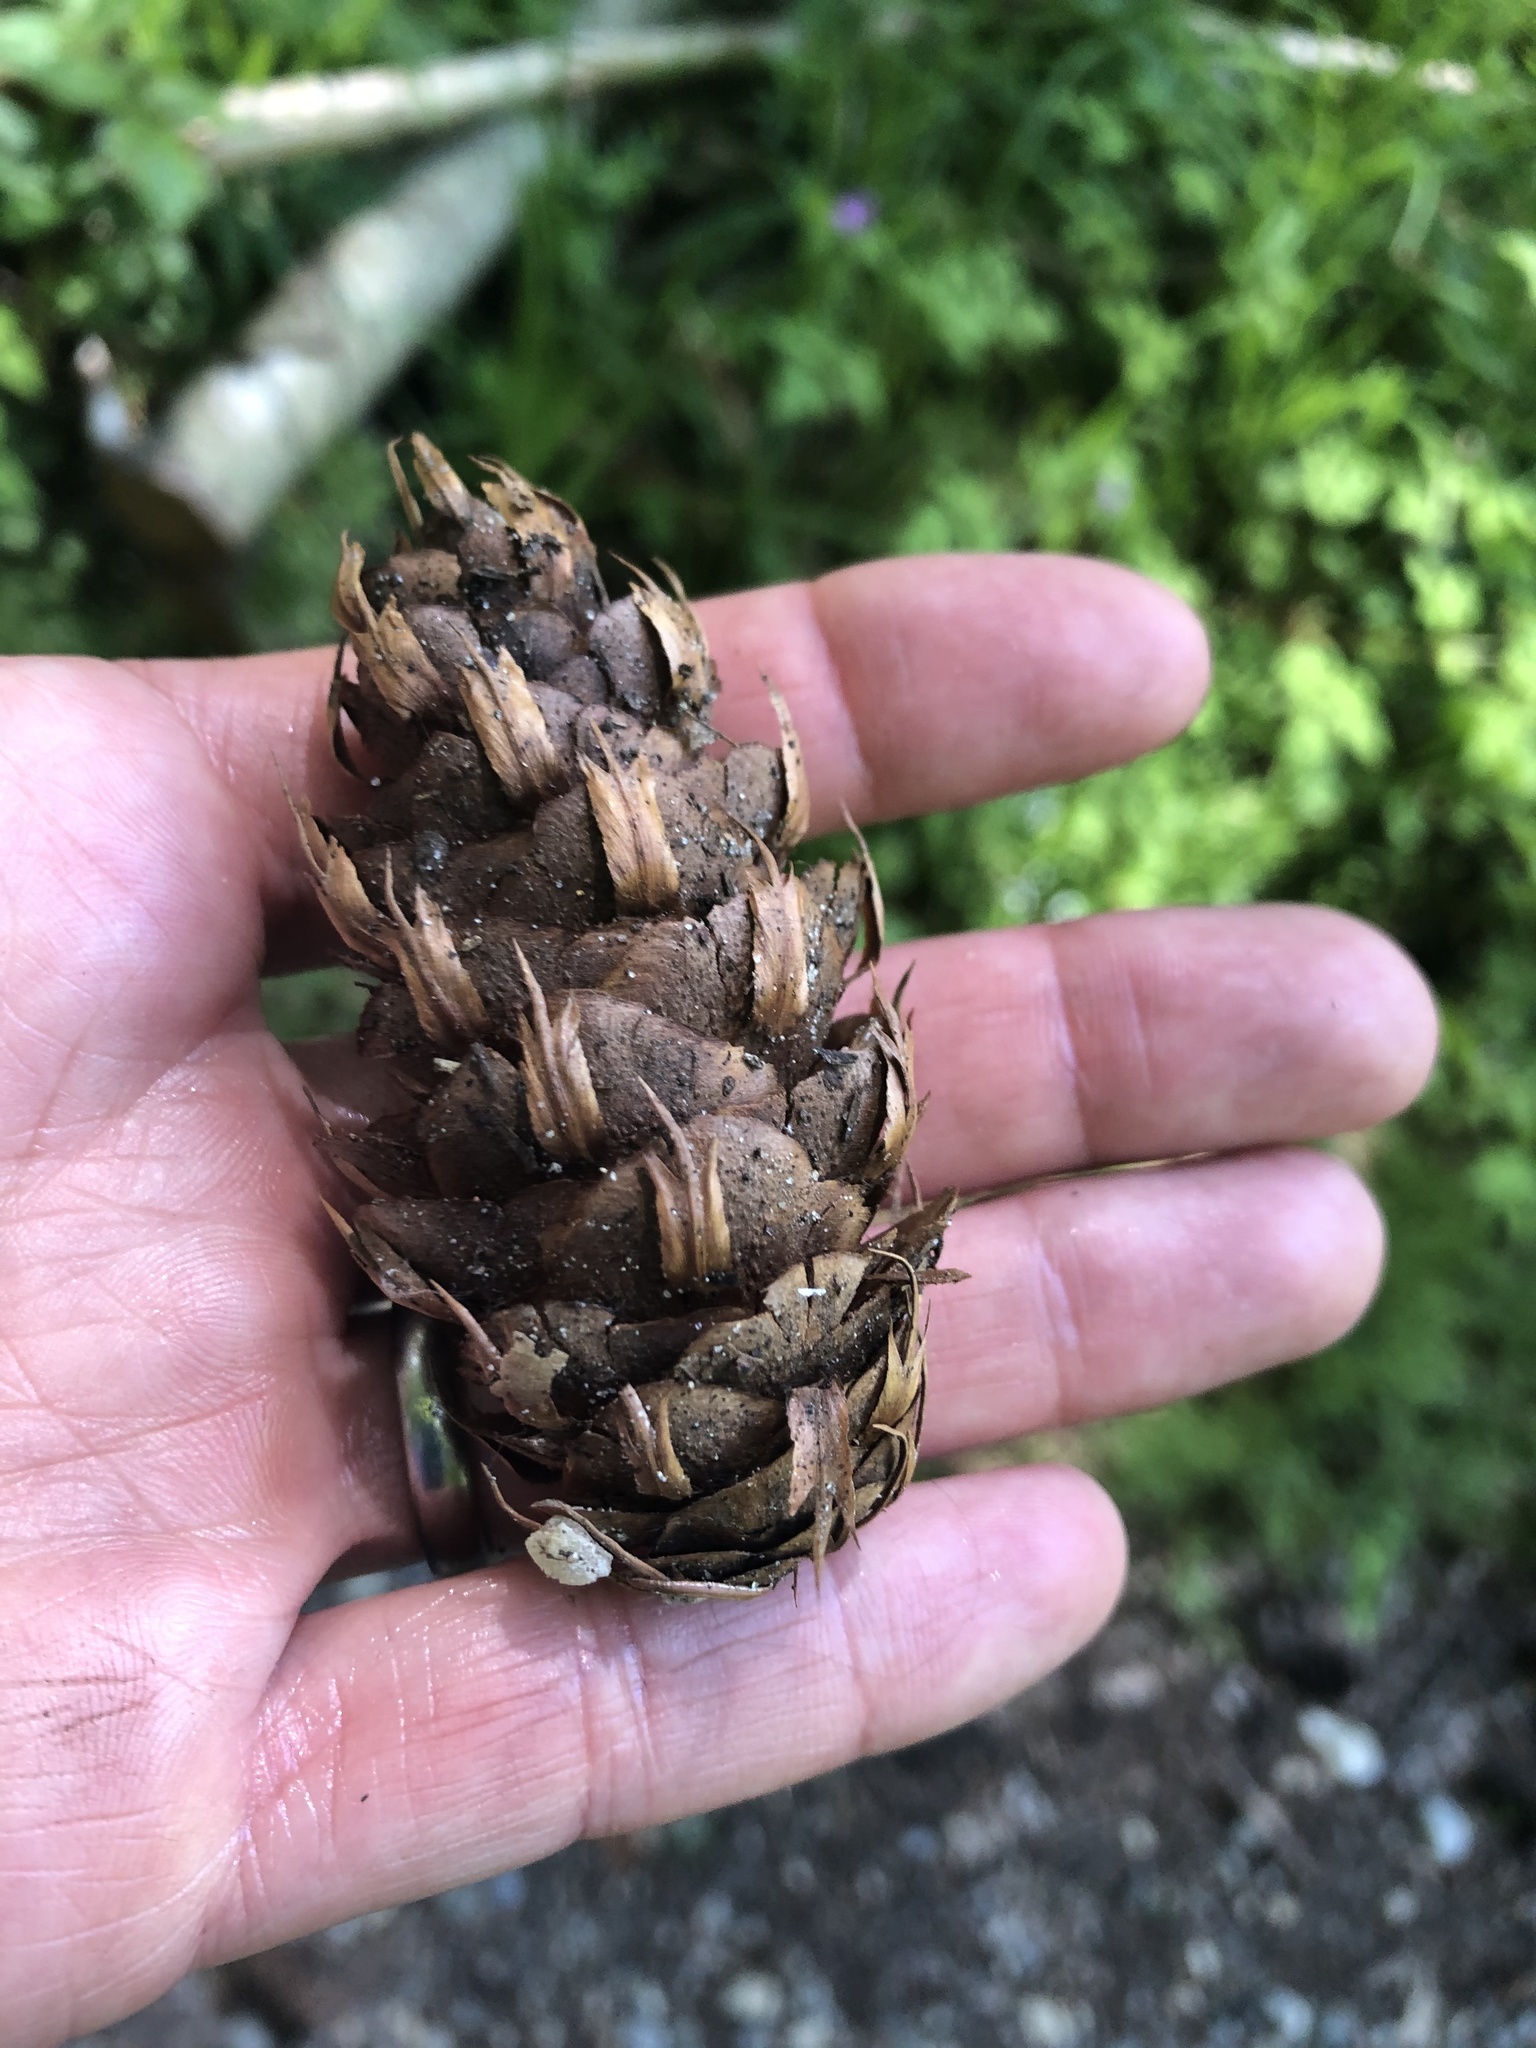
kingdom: Plantae
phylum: Tracheophyta
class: Pinopsida
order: Pinales
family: Pinaceae
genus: Pseudotsuga
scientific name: Pseudotsuga menziesii
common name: Douglas fir
